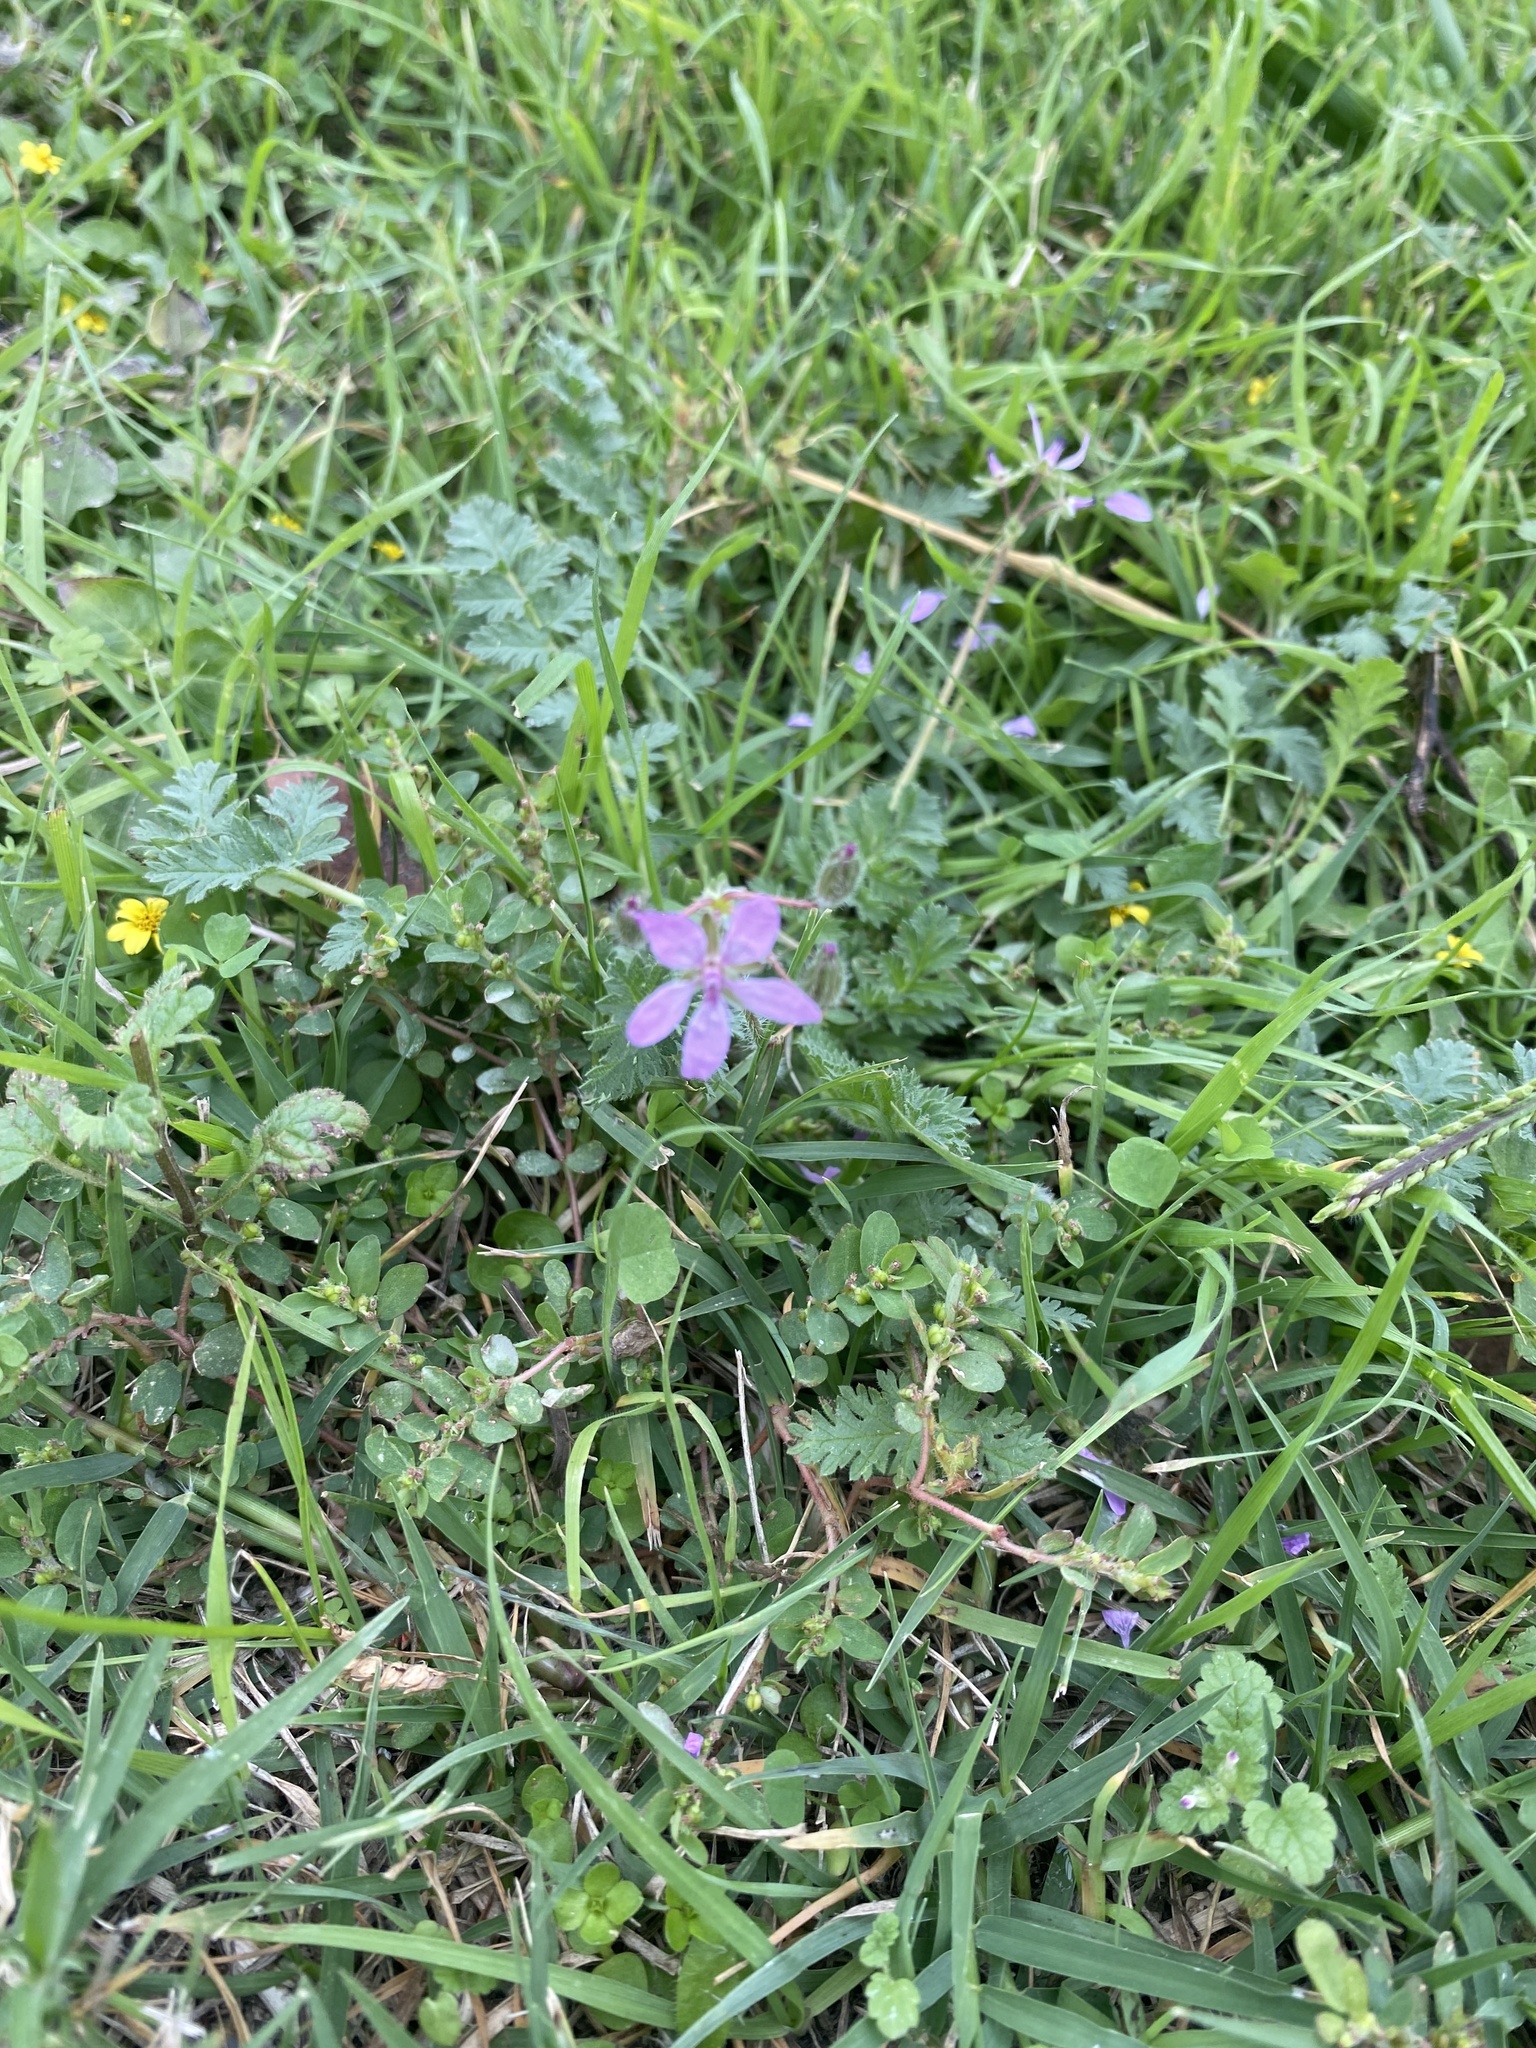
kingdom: Plantae
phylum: Tracheophyta
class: Magnoliopsida
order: Geraniales
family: Geraniaceae
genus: Erodium
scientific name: Erodium cicutarium
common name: Common stork's-bill
